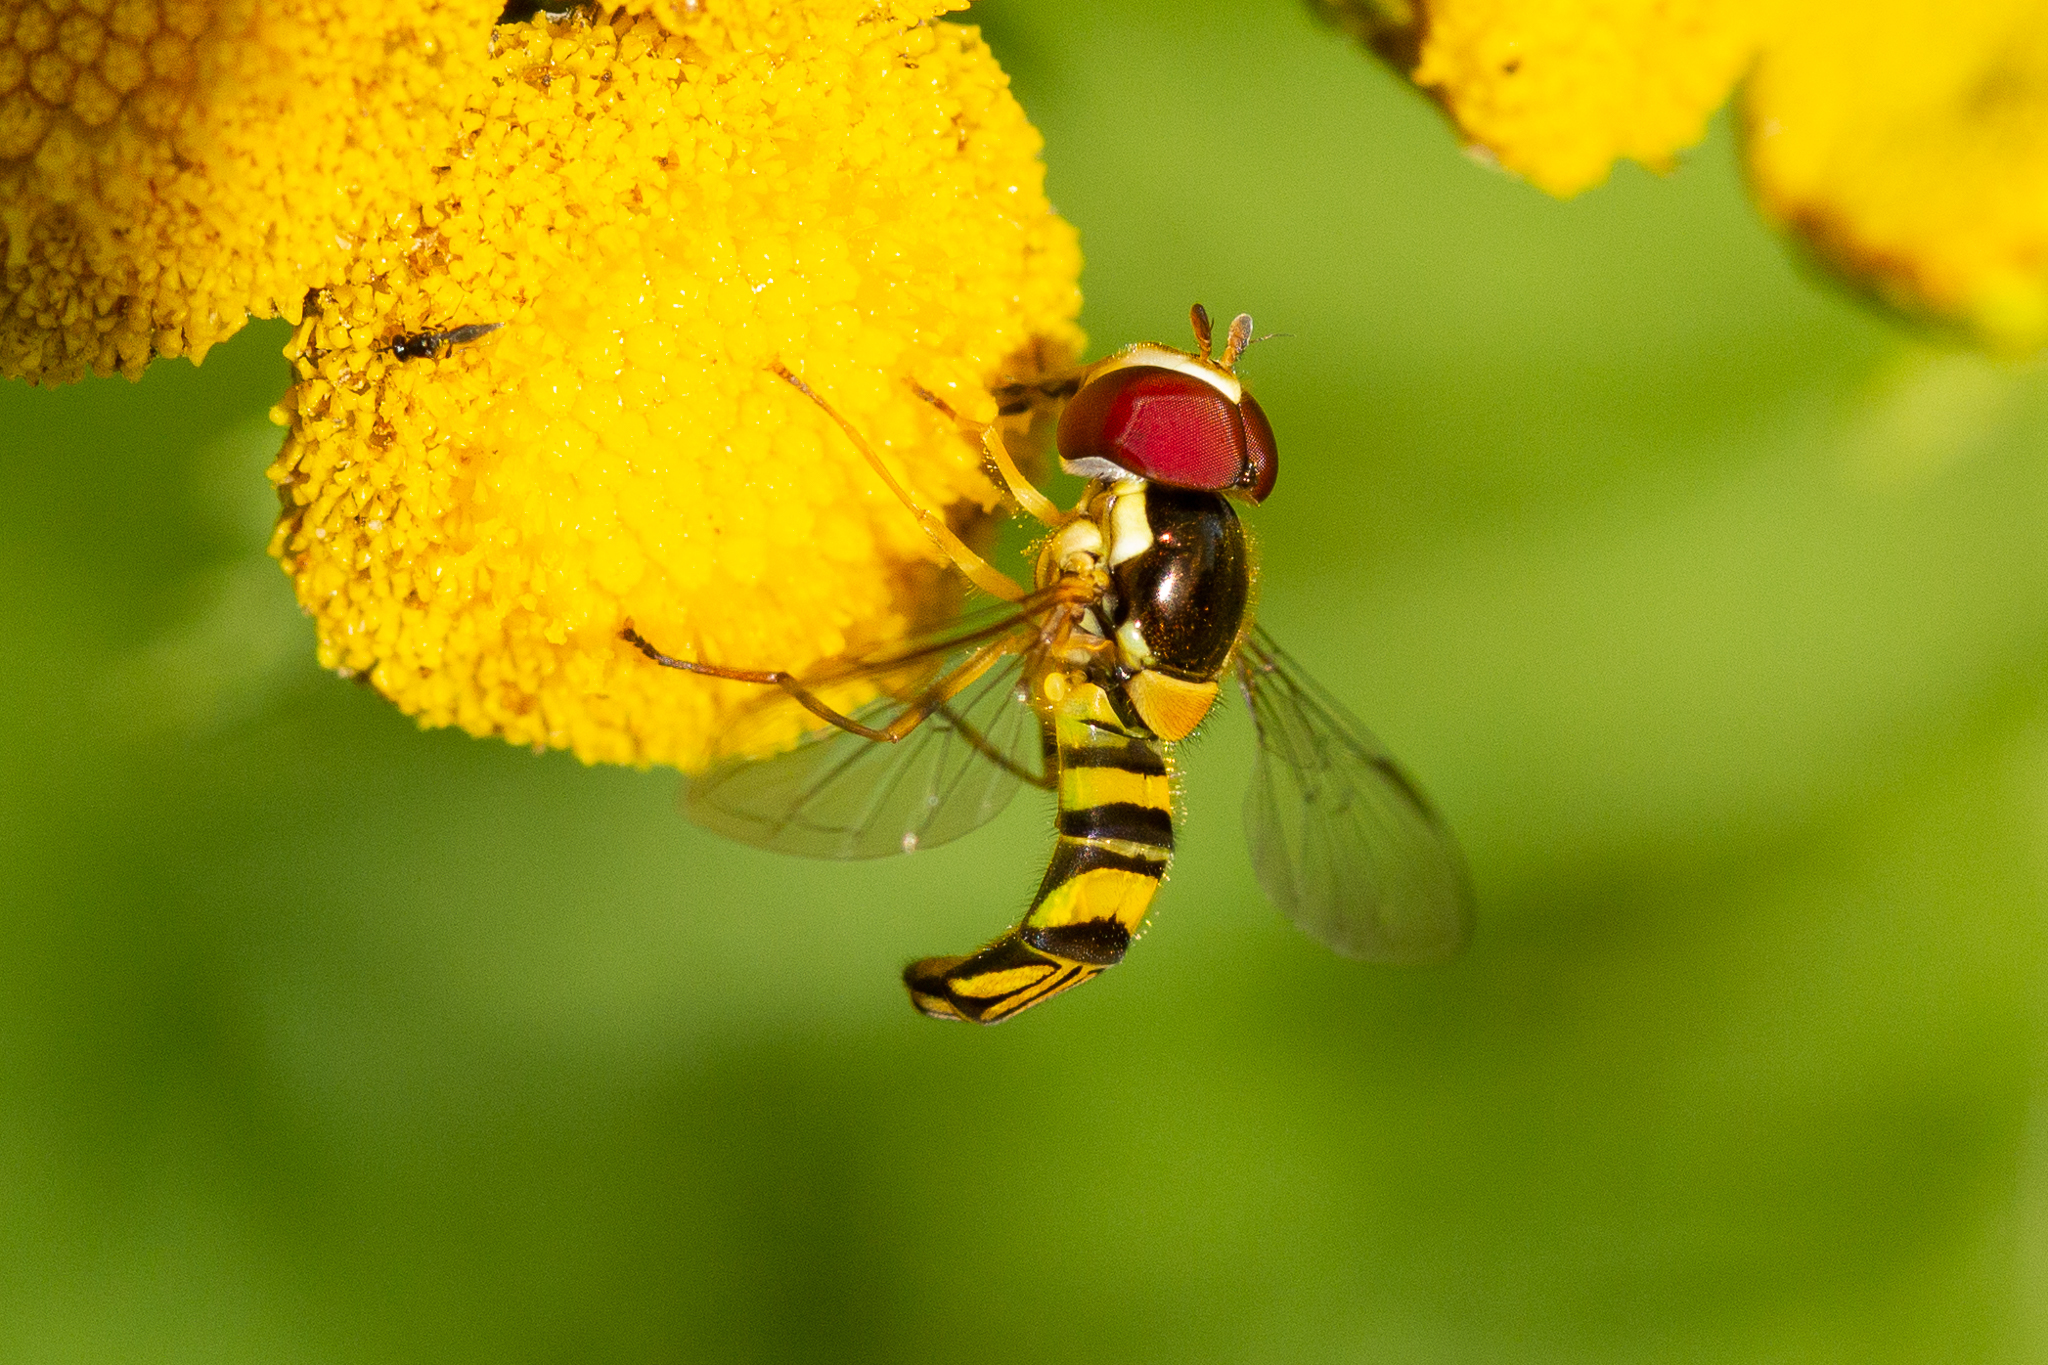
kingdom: Animalia
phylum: Arthropoda
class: Insecta
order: Diptera
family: Syrphidae
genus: Allograpta
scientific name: Allograpta obliqua
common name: Common oblique syrphid
